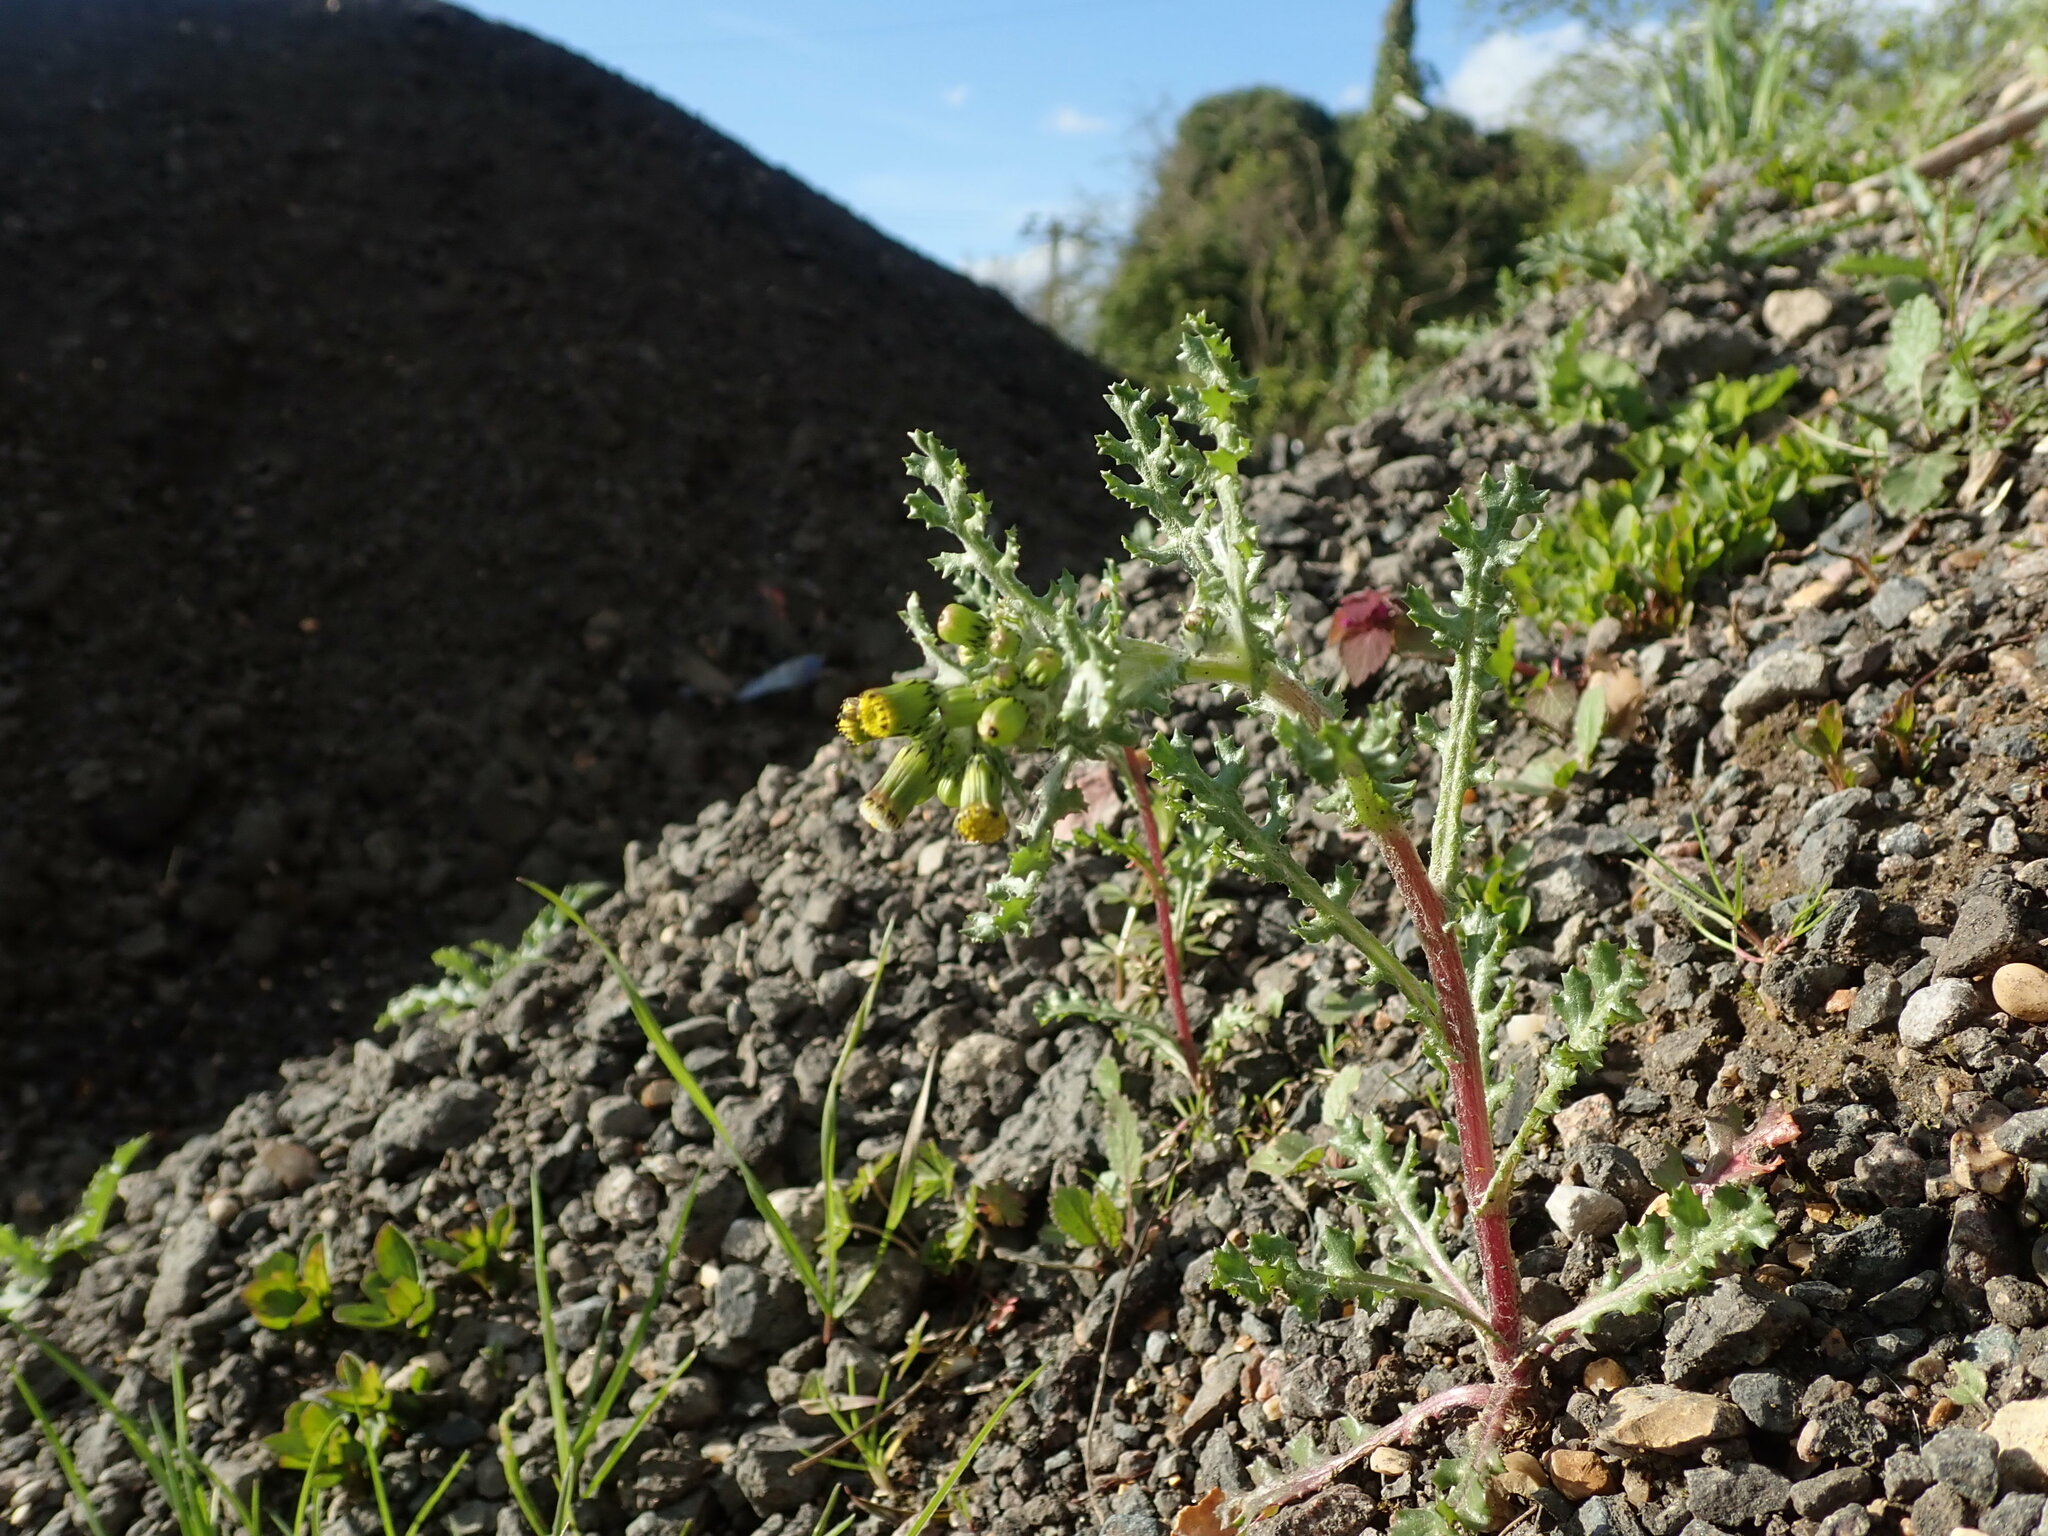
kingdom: Plantae
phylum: Tracheophyta
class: Magnoliopsida
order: Asterales
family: Asteraceae
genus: Senecio
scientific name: Senecio vulgaris
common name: Old-man-in-the-spring
